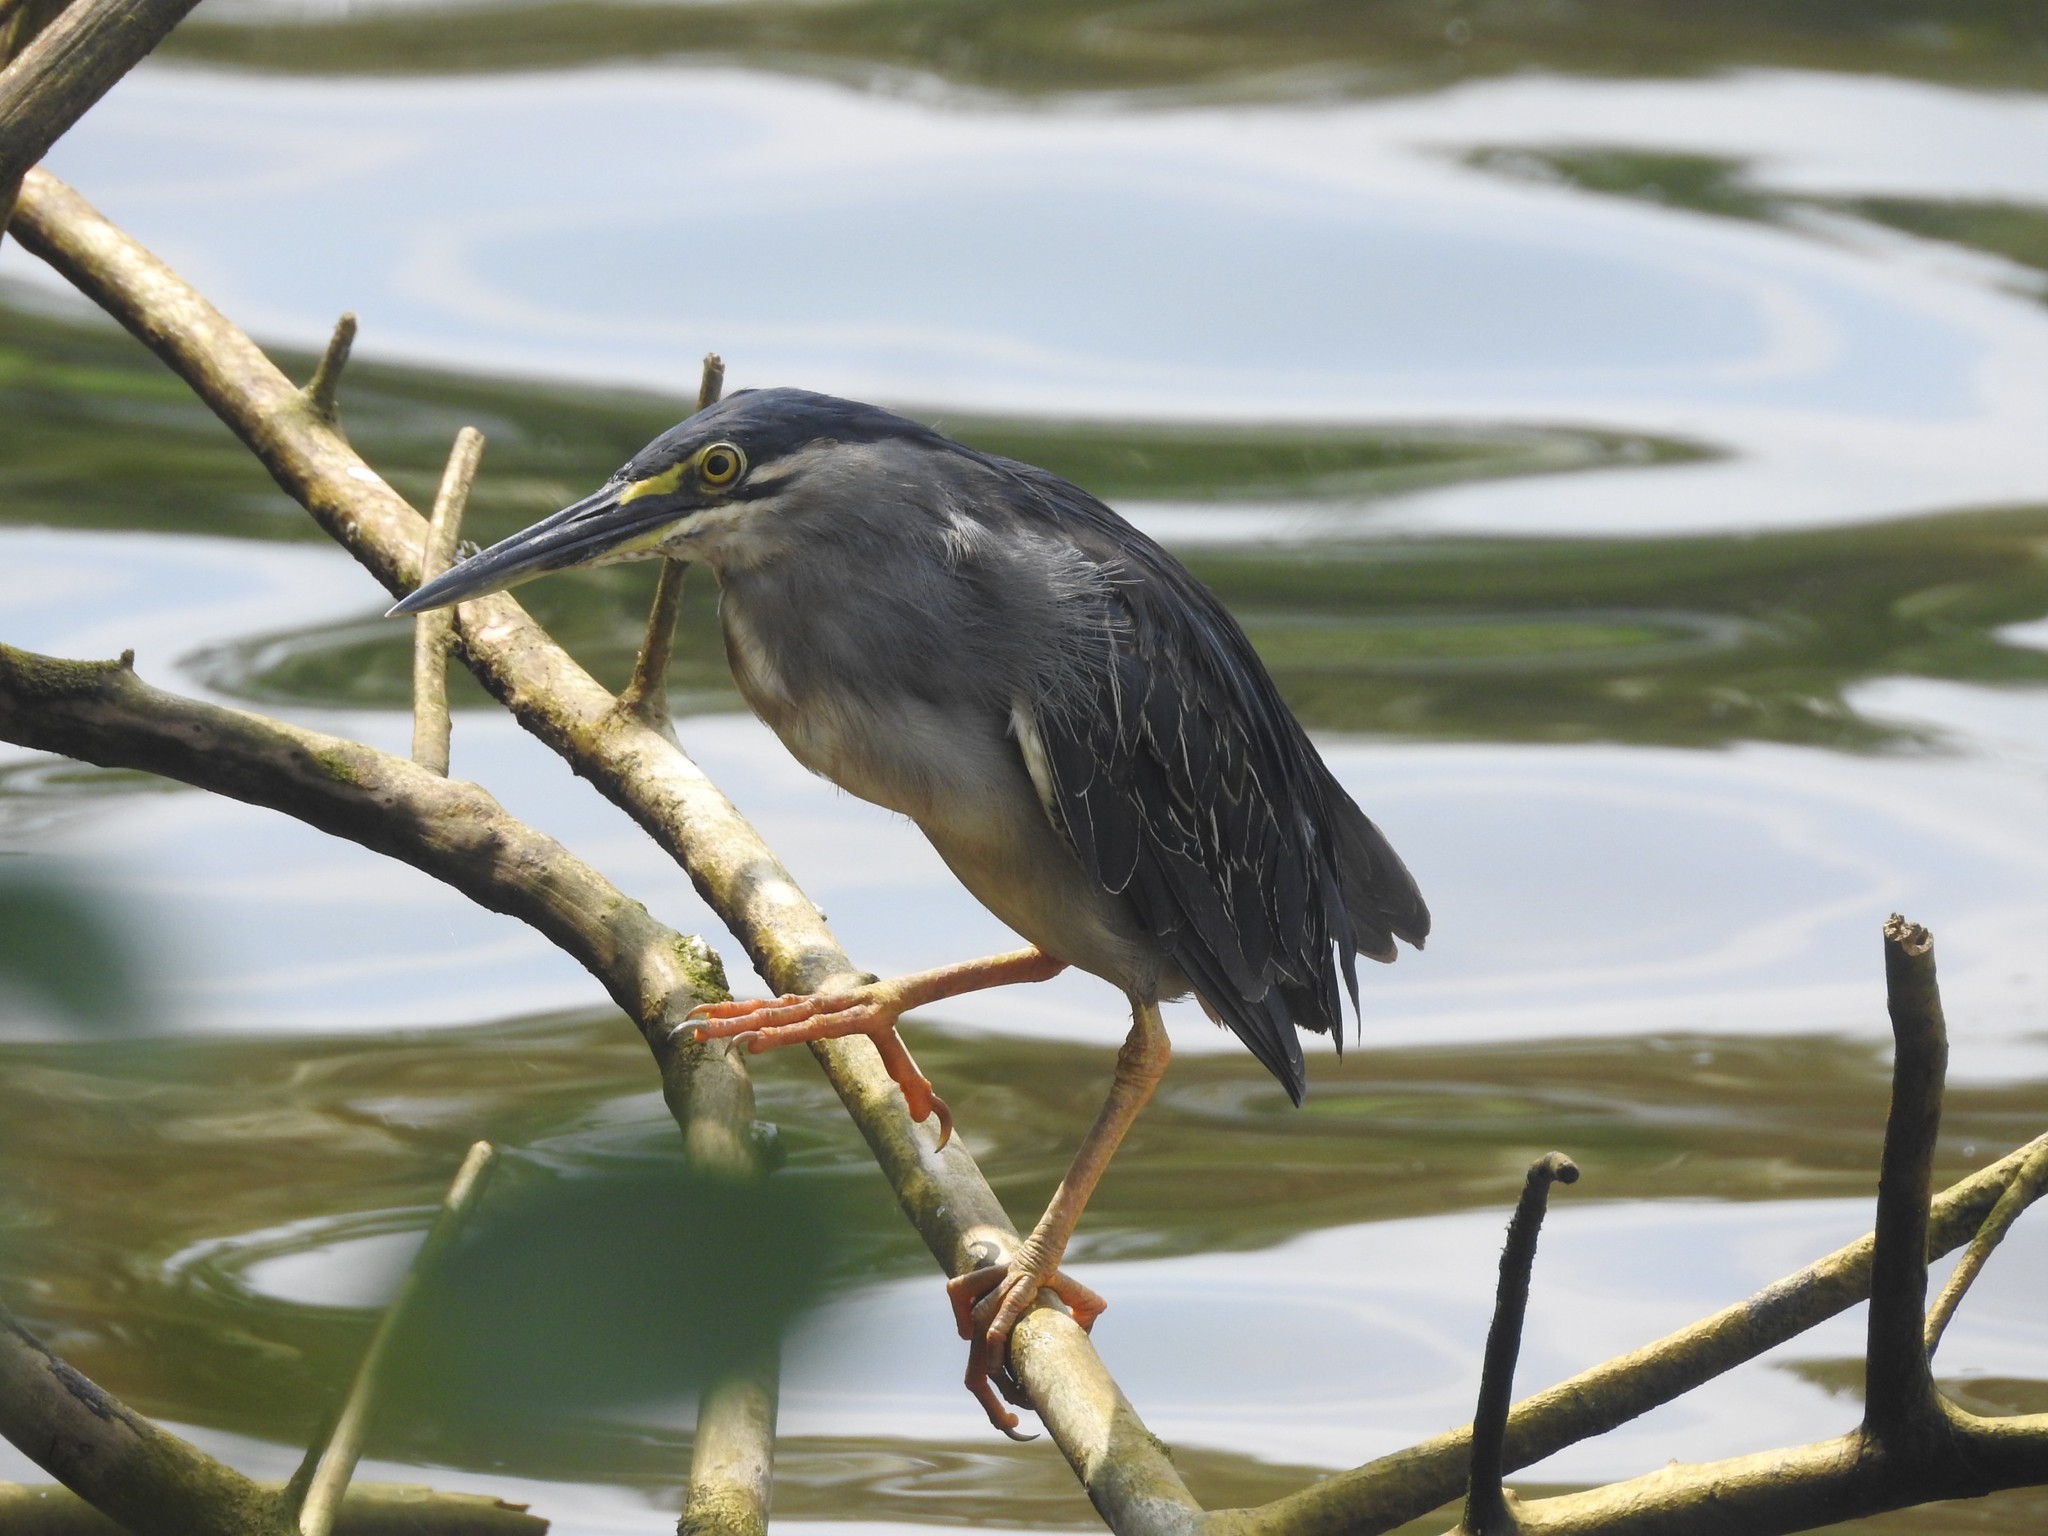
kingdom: Animalia
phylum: Chordata
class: Aves
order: Pelecaniformes
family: Ardeidae
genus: Butorides
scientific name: Butorides striata
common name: Striated heron
